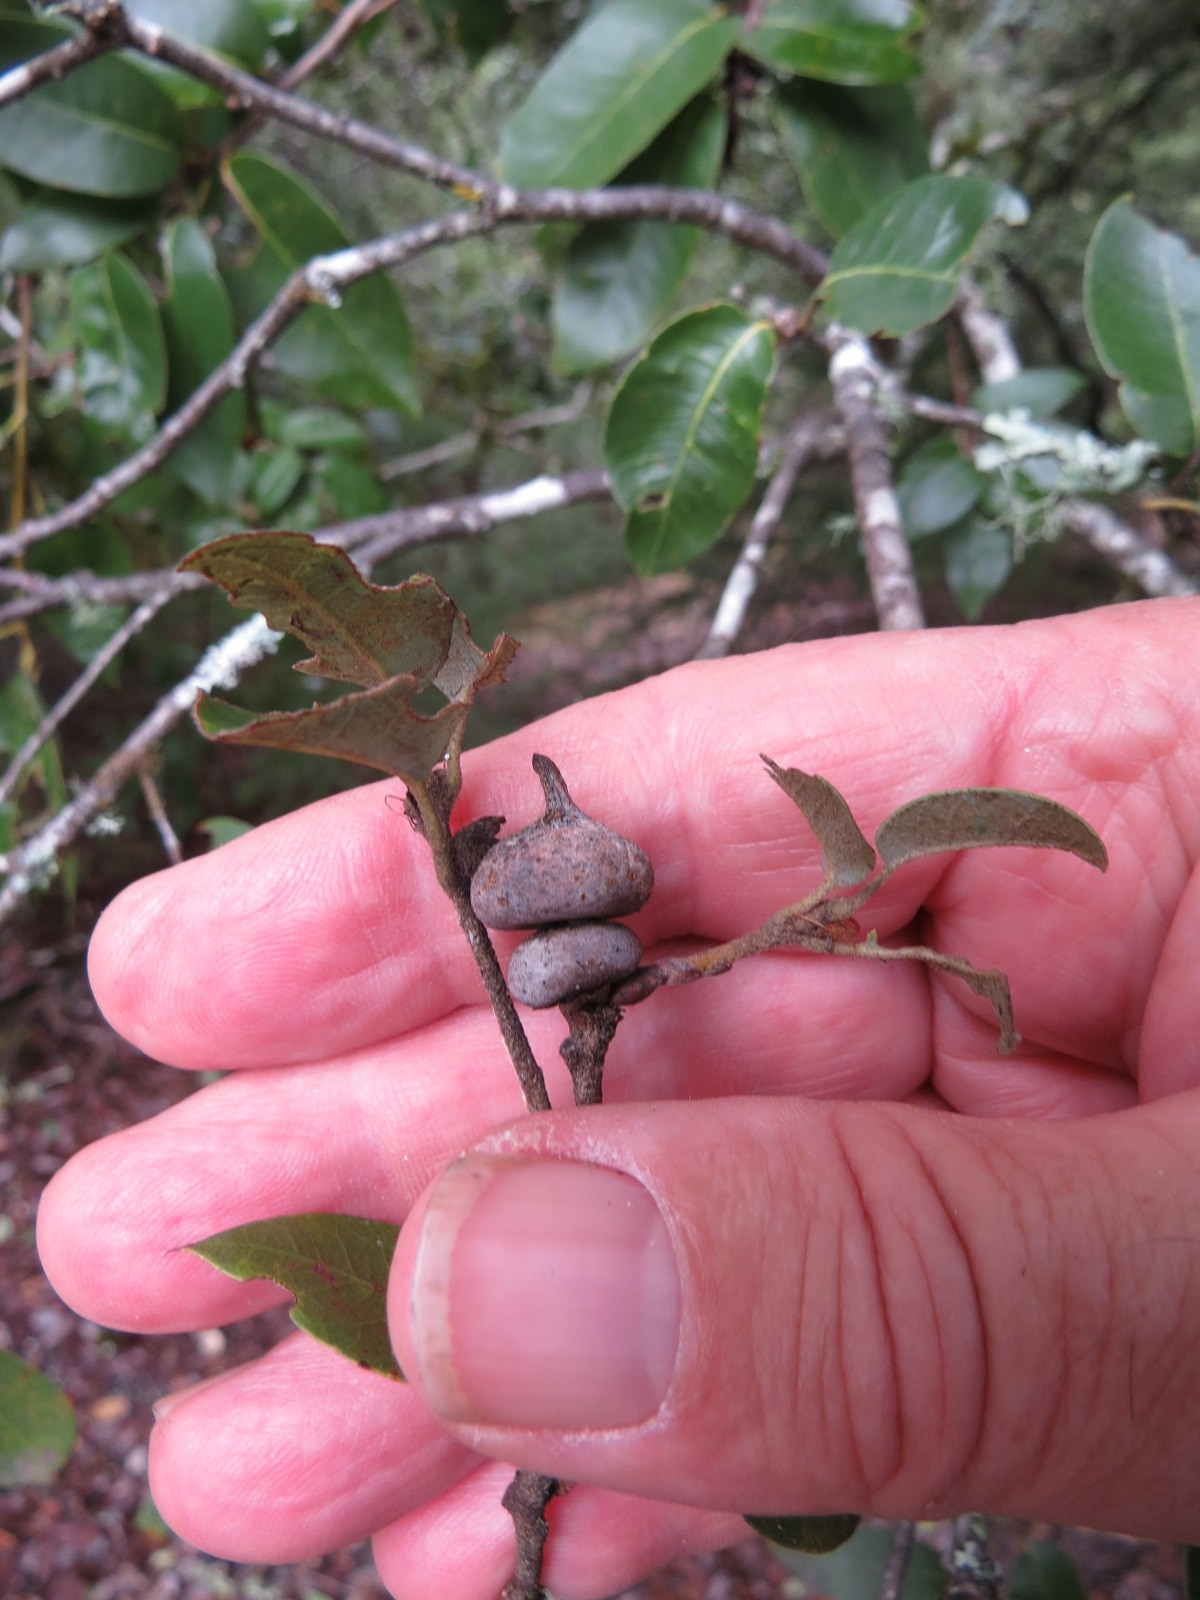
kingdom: Animalia
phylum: Arthropoda
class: Insecta
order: Hymenoptera
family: Cynipidae
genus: Heteroecus
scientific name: Heteroecus
